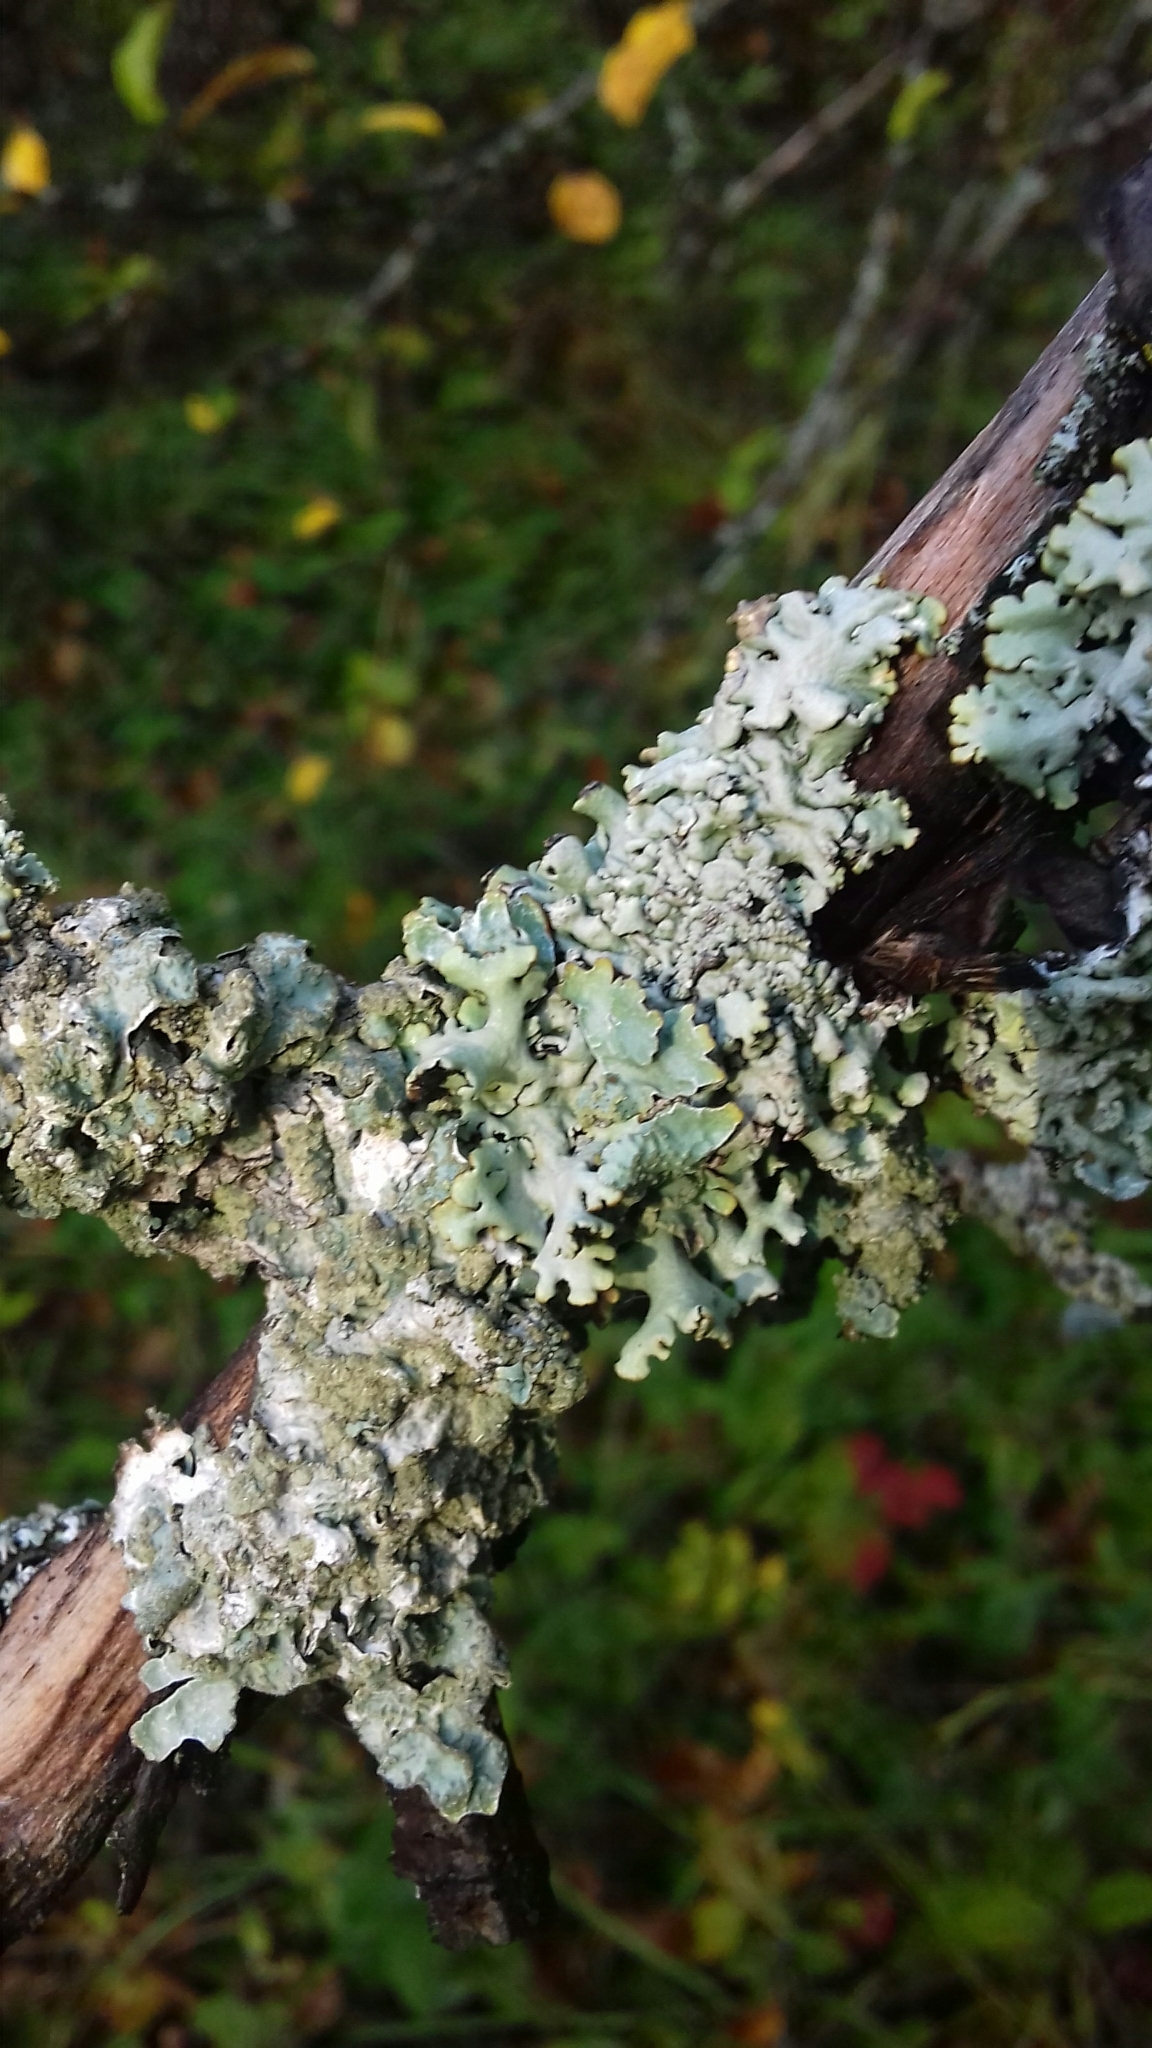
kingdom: Fungi
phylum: Ascomycota
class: Lecanoromycetes
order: Lecanorales
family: Parmeliaceae
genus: Hypogymnia
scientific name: Hypogymnia physodes
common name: Dark crottle
